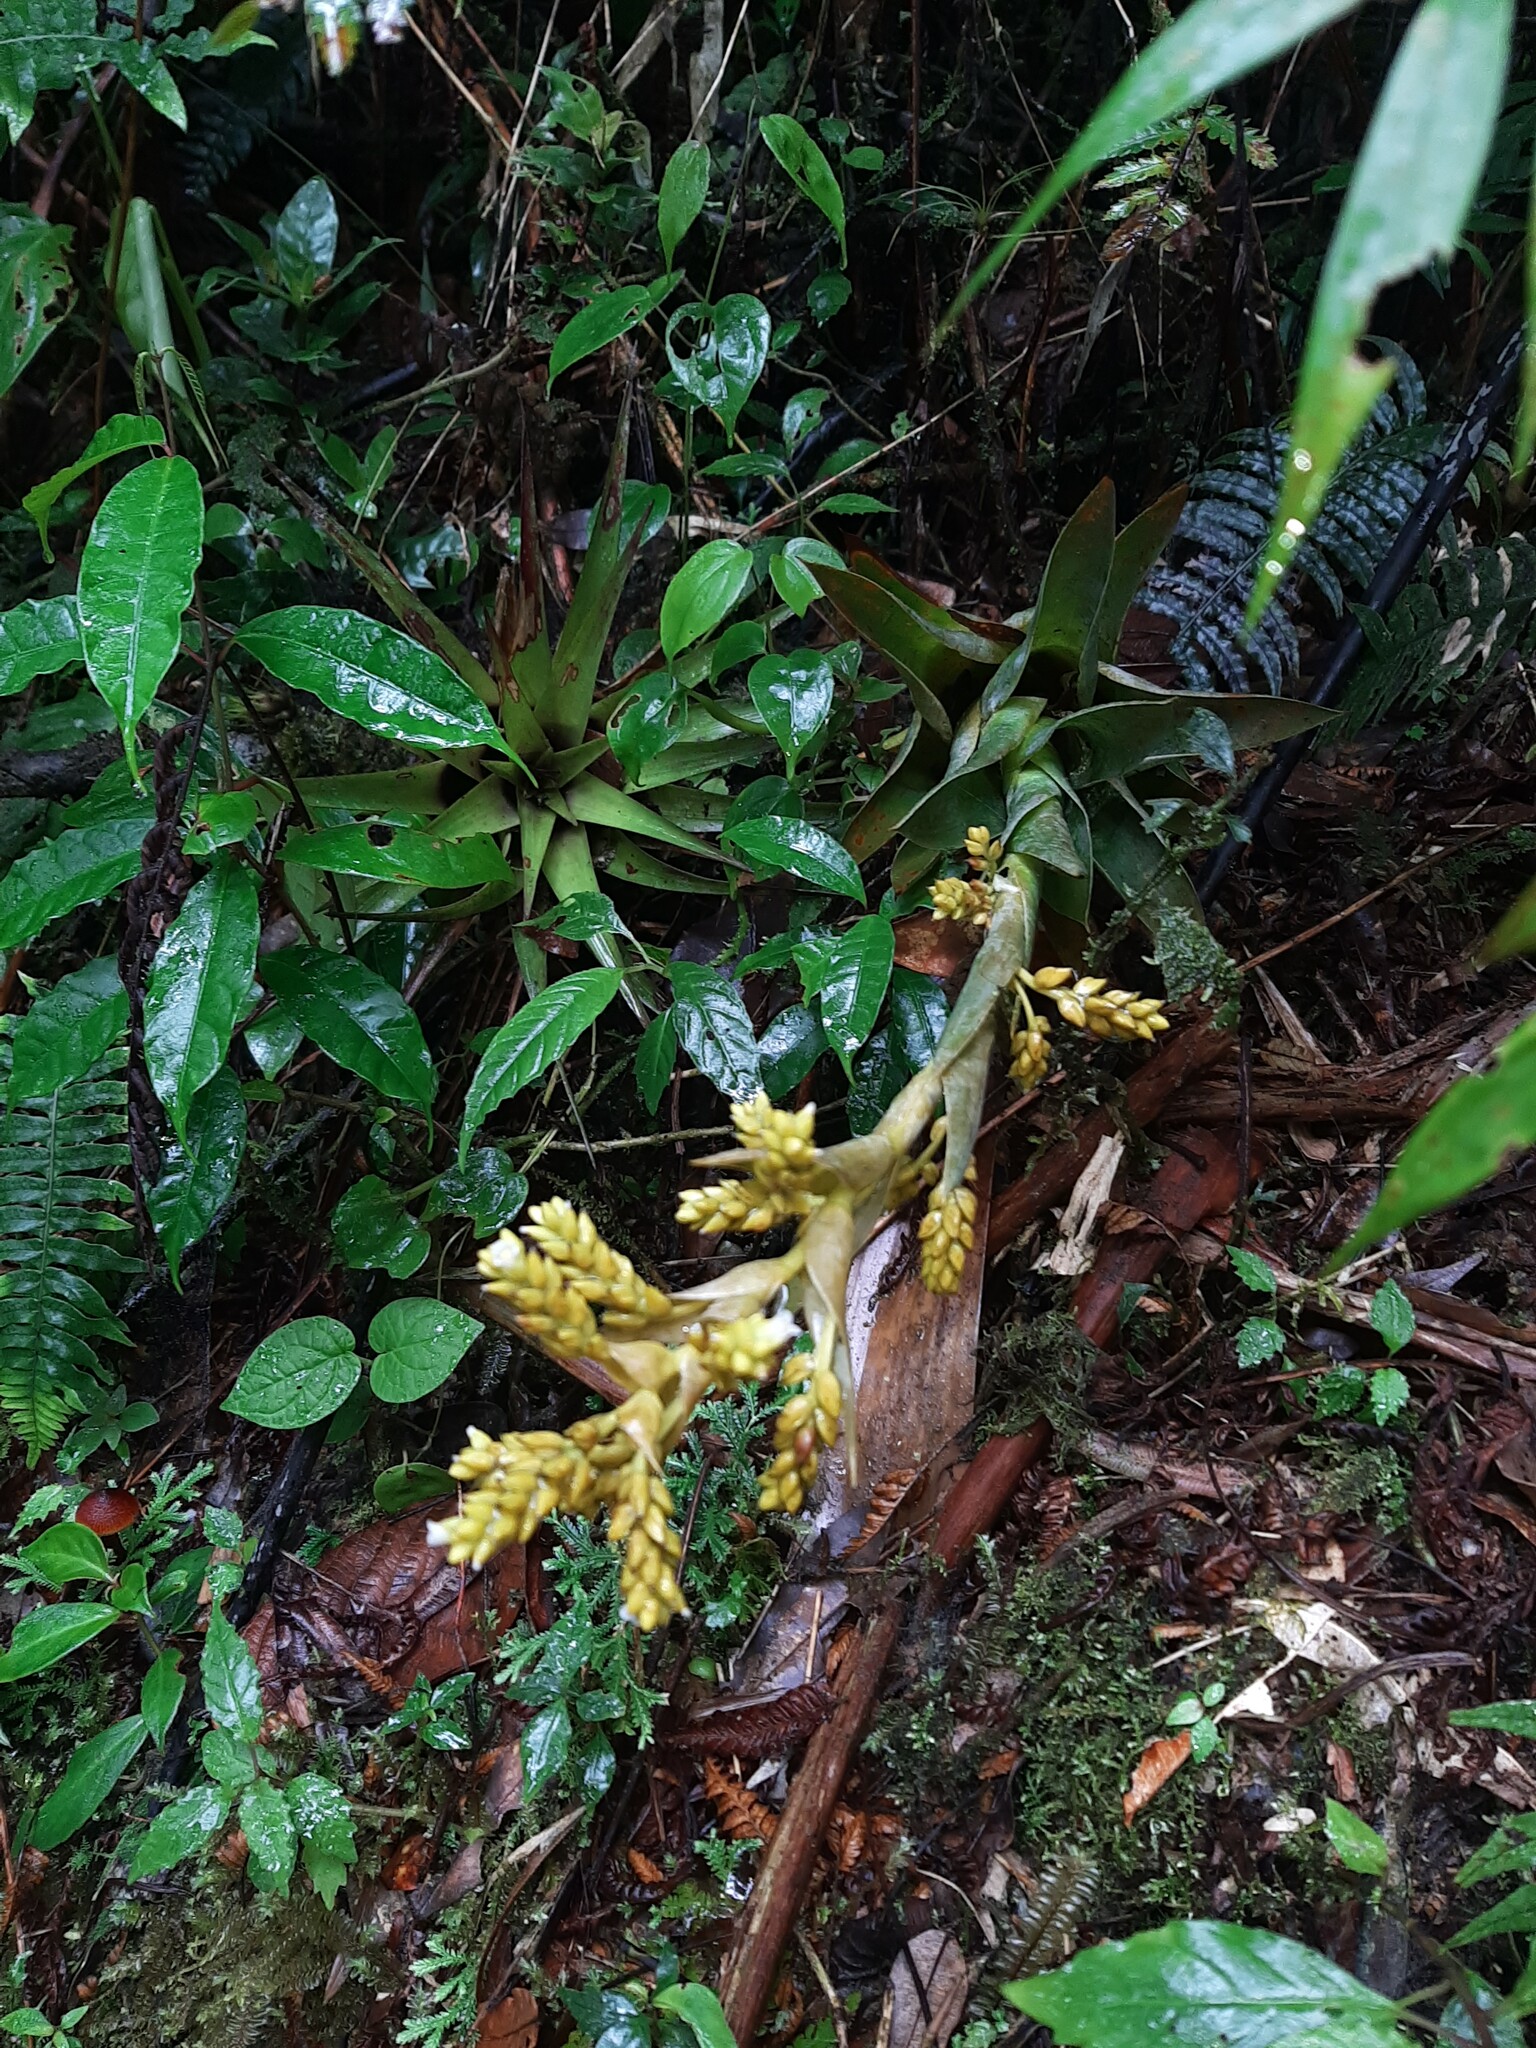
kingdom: Plantae
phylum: Tracheophyta
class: Liliopsida
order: Poales
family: Bromeliaceae
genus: Catopsis
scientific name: Catopsis oerstediana
